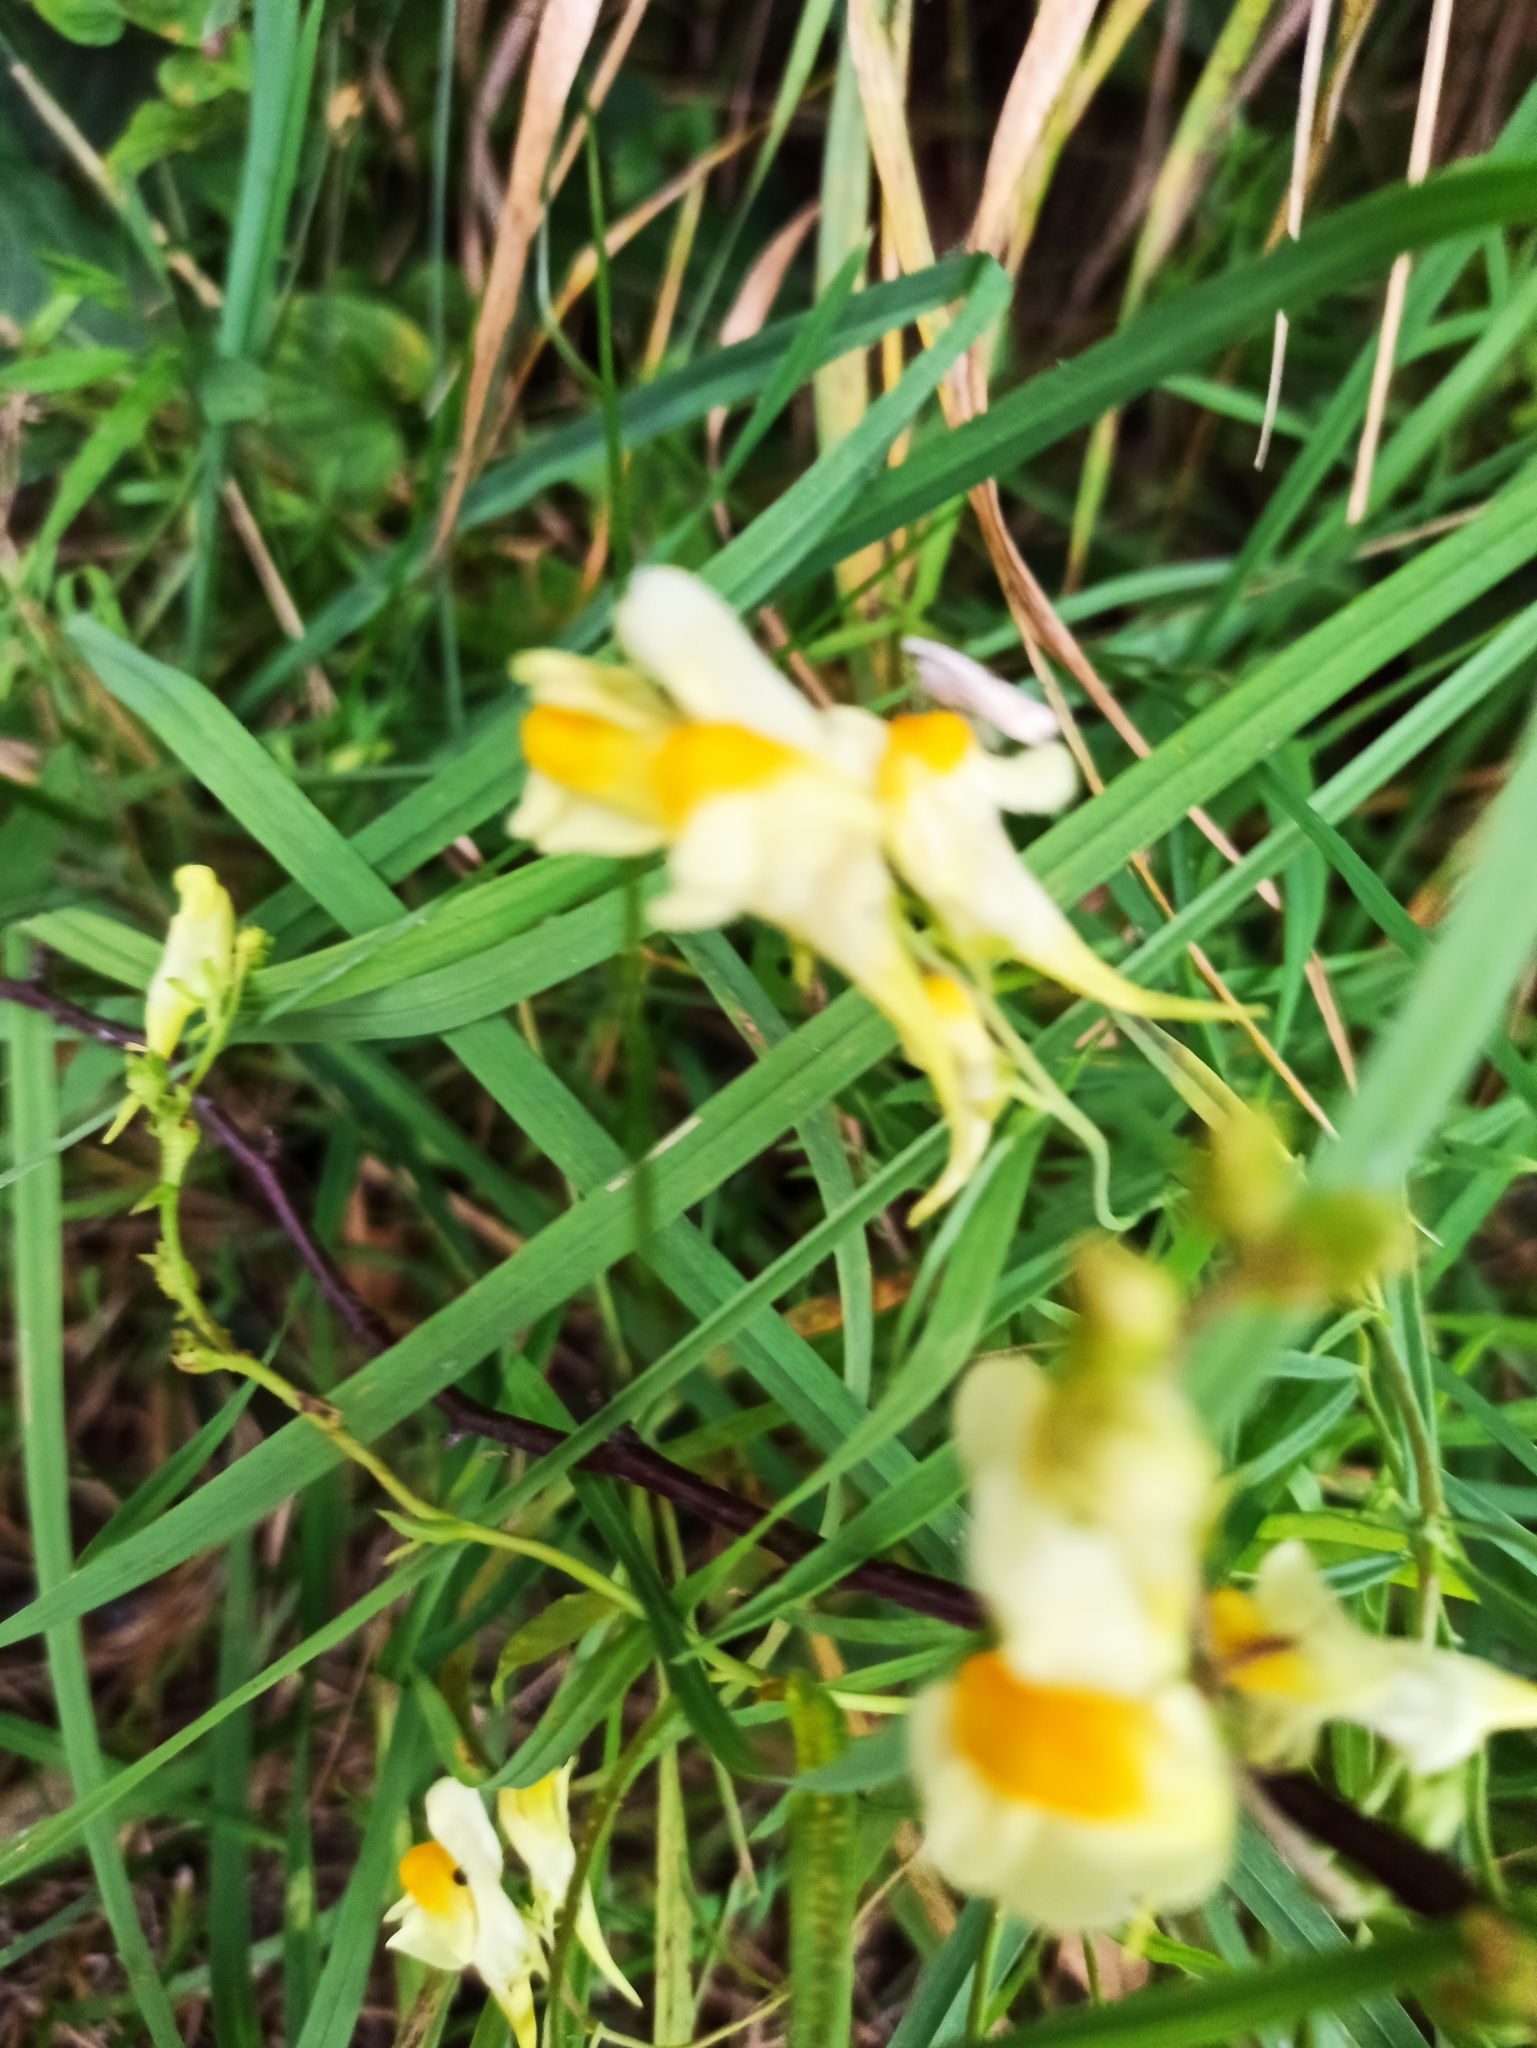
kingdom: Plantae
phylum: Tracheophyta
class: Magnoliopsida
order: Lamiales
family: Plantaginaceae
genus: Linaria
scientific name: Linaria vulgaris
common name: Butter and eggs
